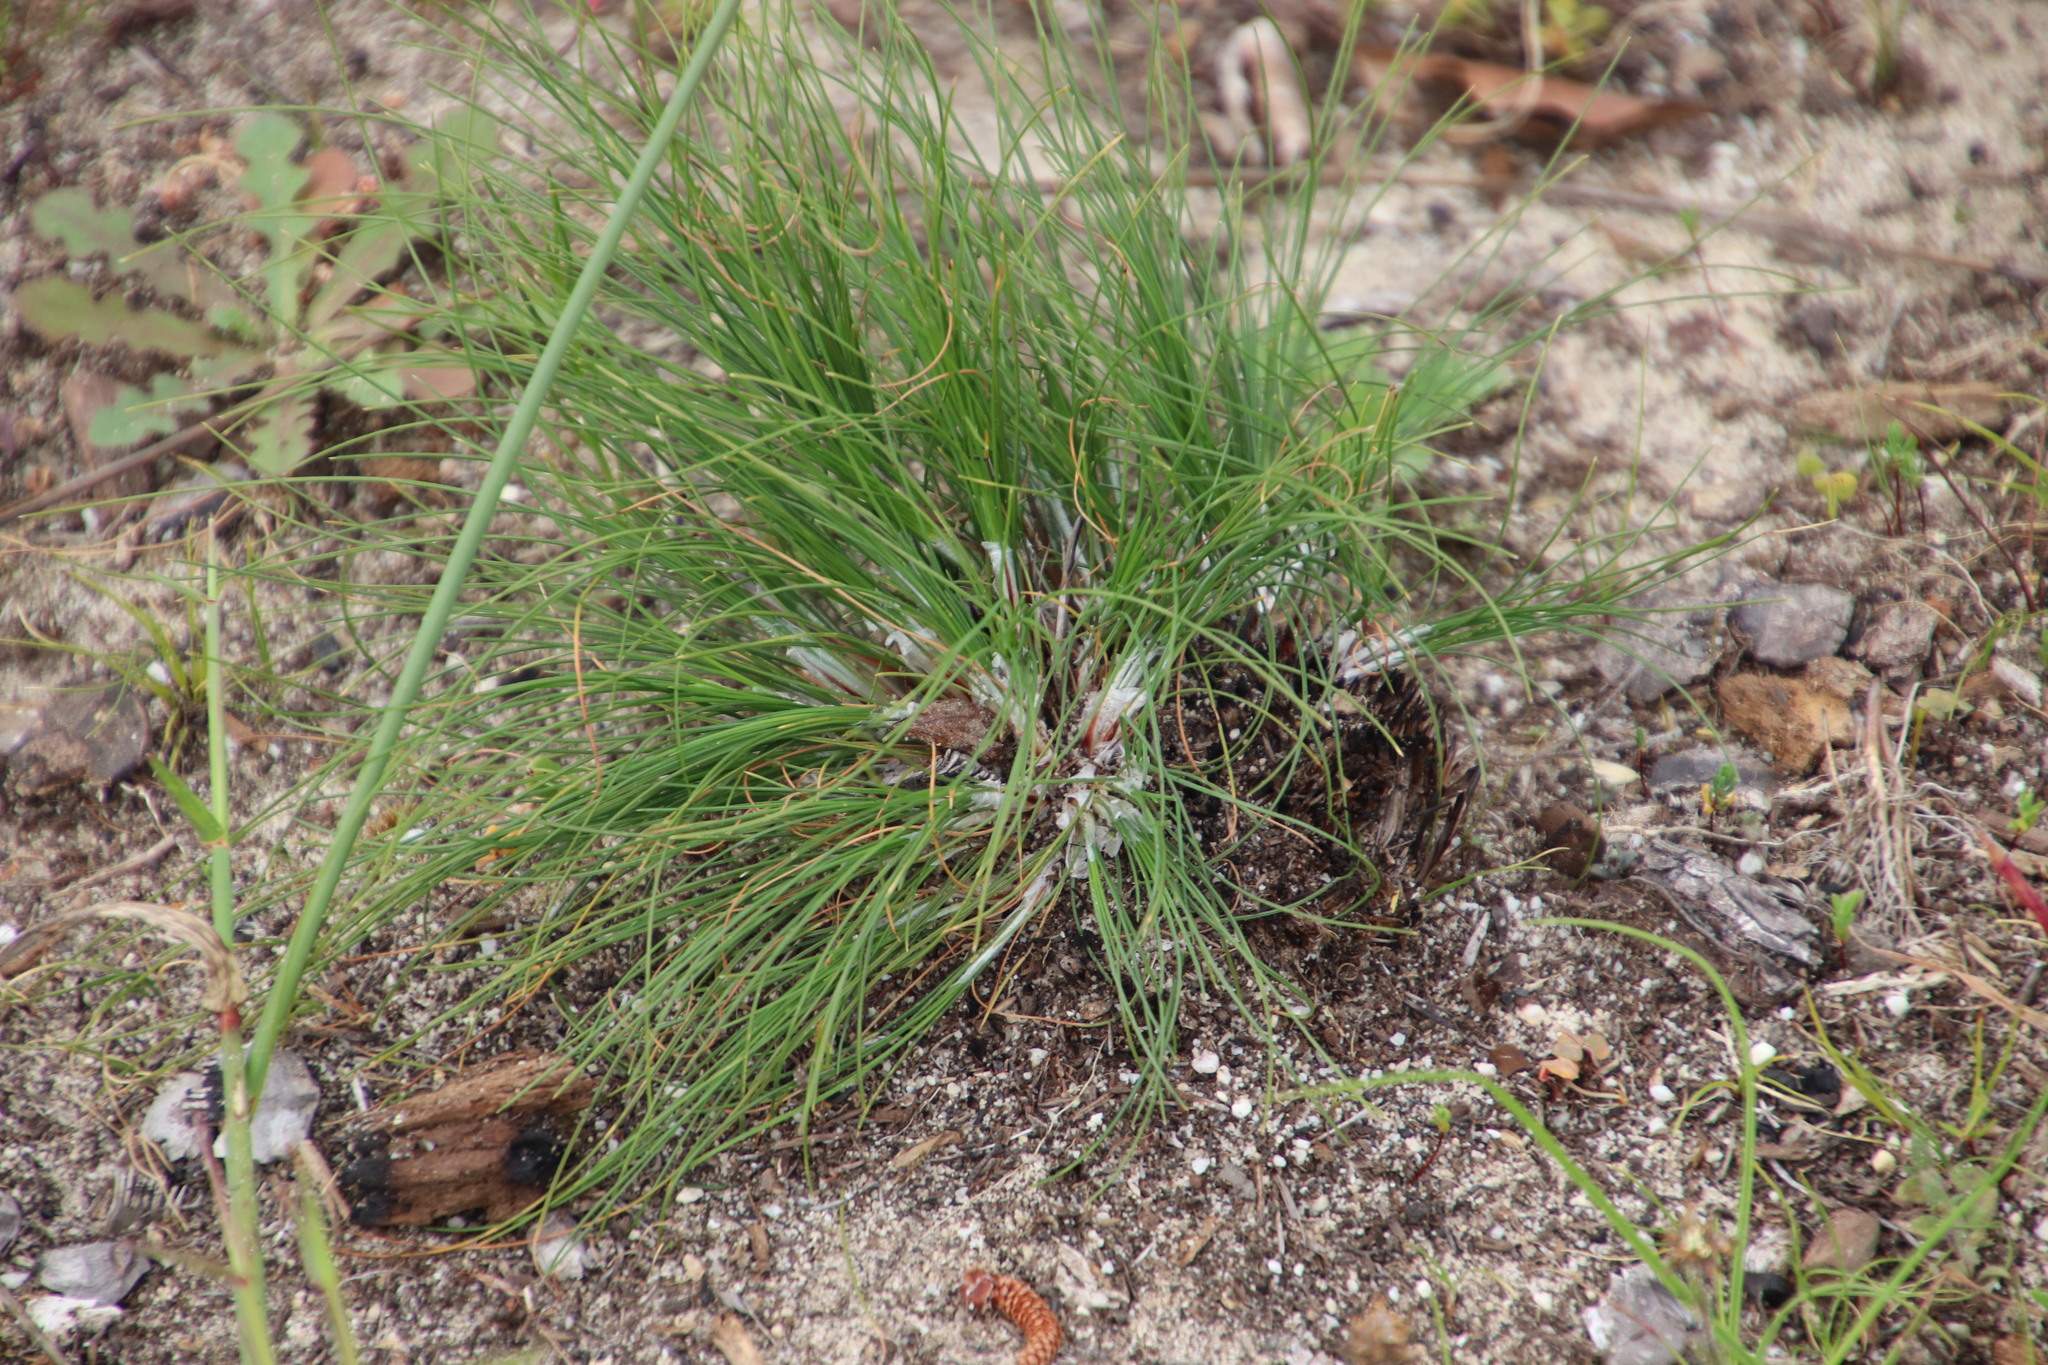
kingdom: Plantae
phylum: Tracheophyta
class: Liliopsida
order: Poales
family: Cyperaceae
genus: Ficinia
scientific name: Ficinia bulbosa
